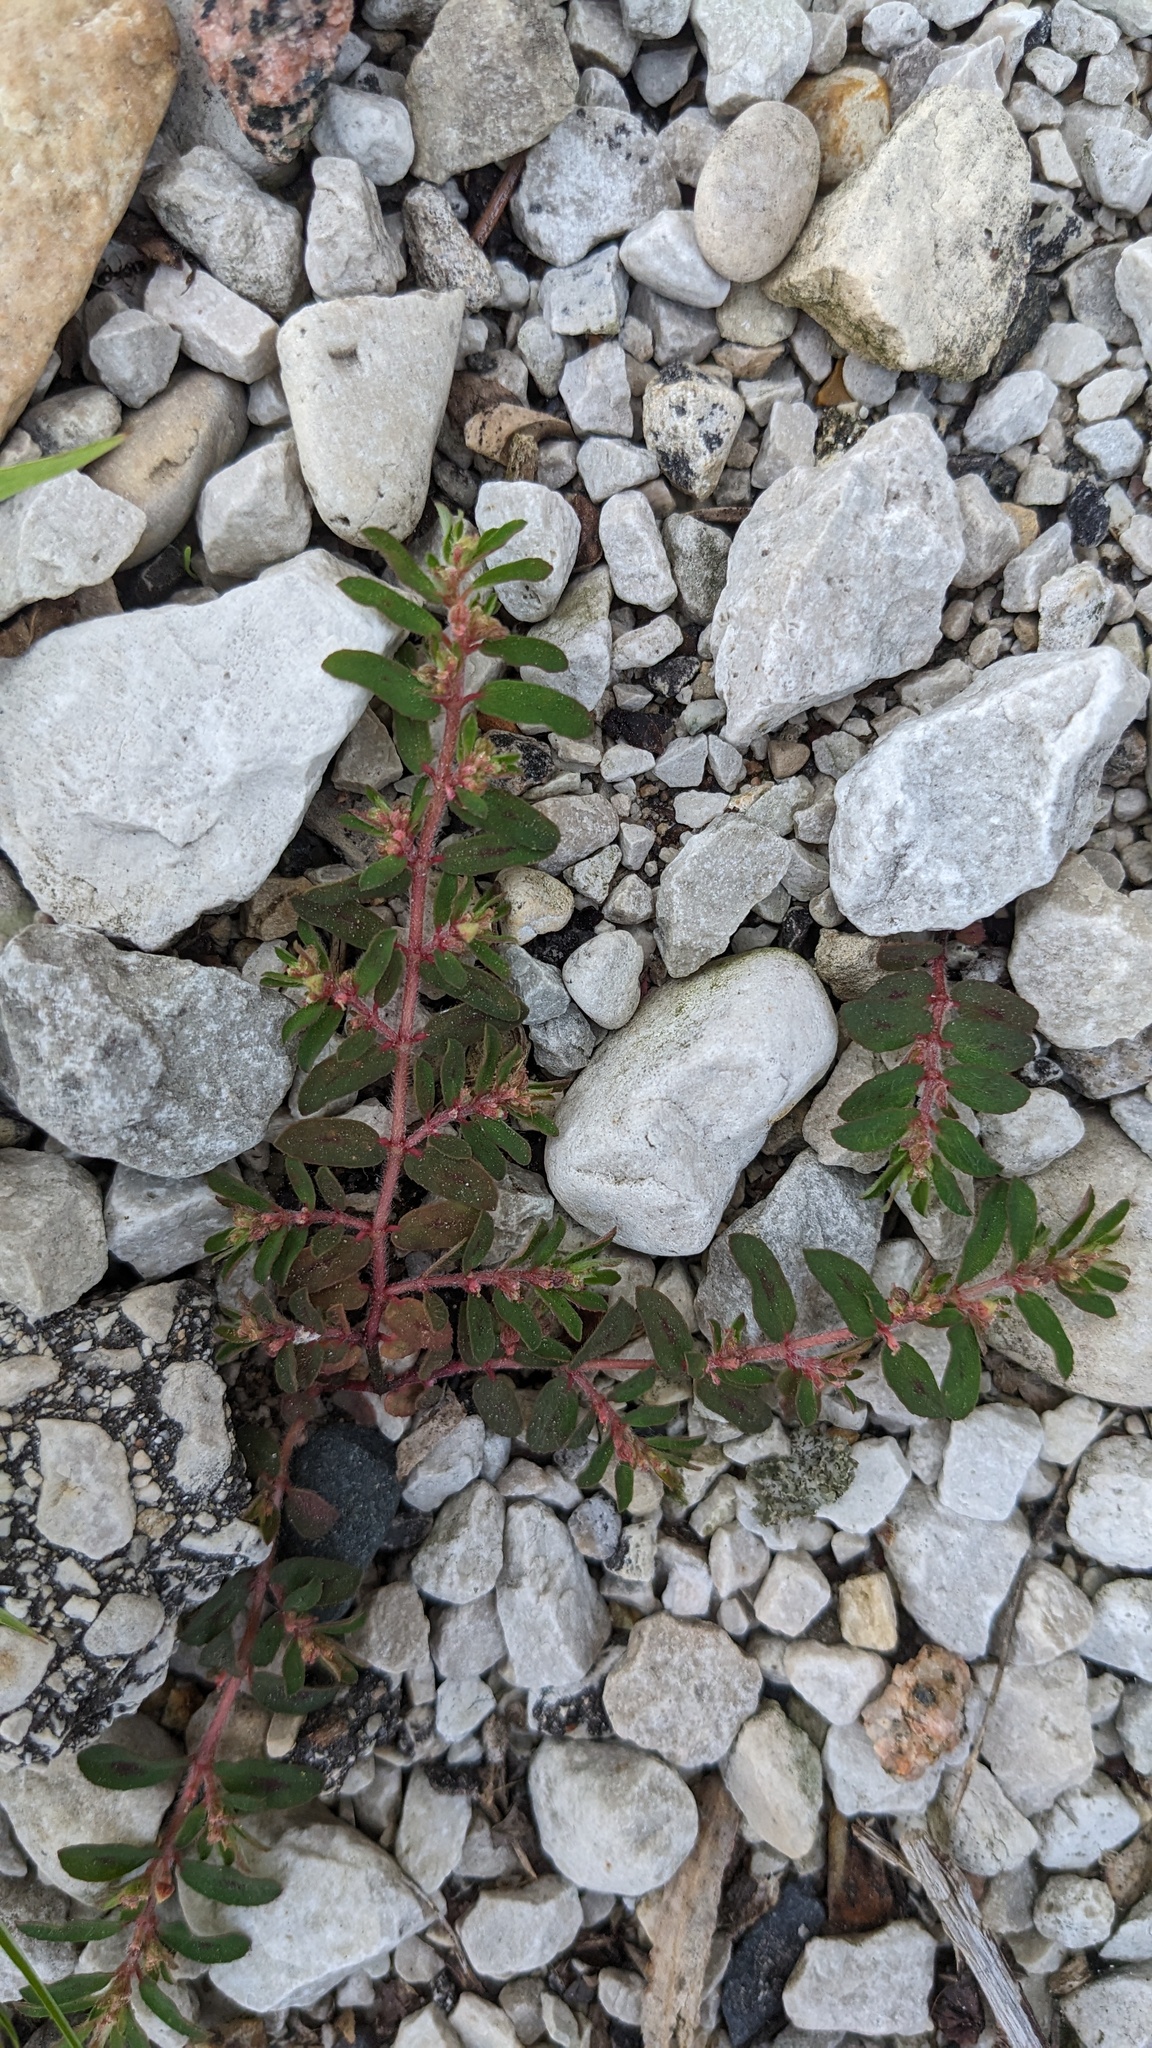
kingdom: Plantae
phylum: Tracheophyta
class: Magnoliopsida
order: Malpighiales
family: Euphorbiaceae
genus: Euphorbia
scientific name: Euphorbia maculata
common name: Spotted spurge
